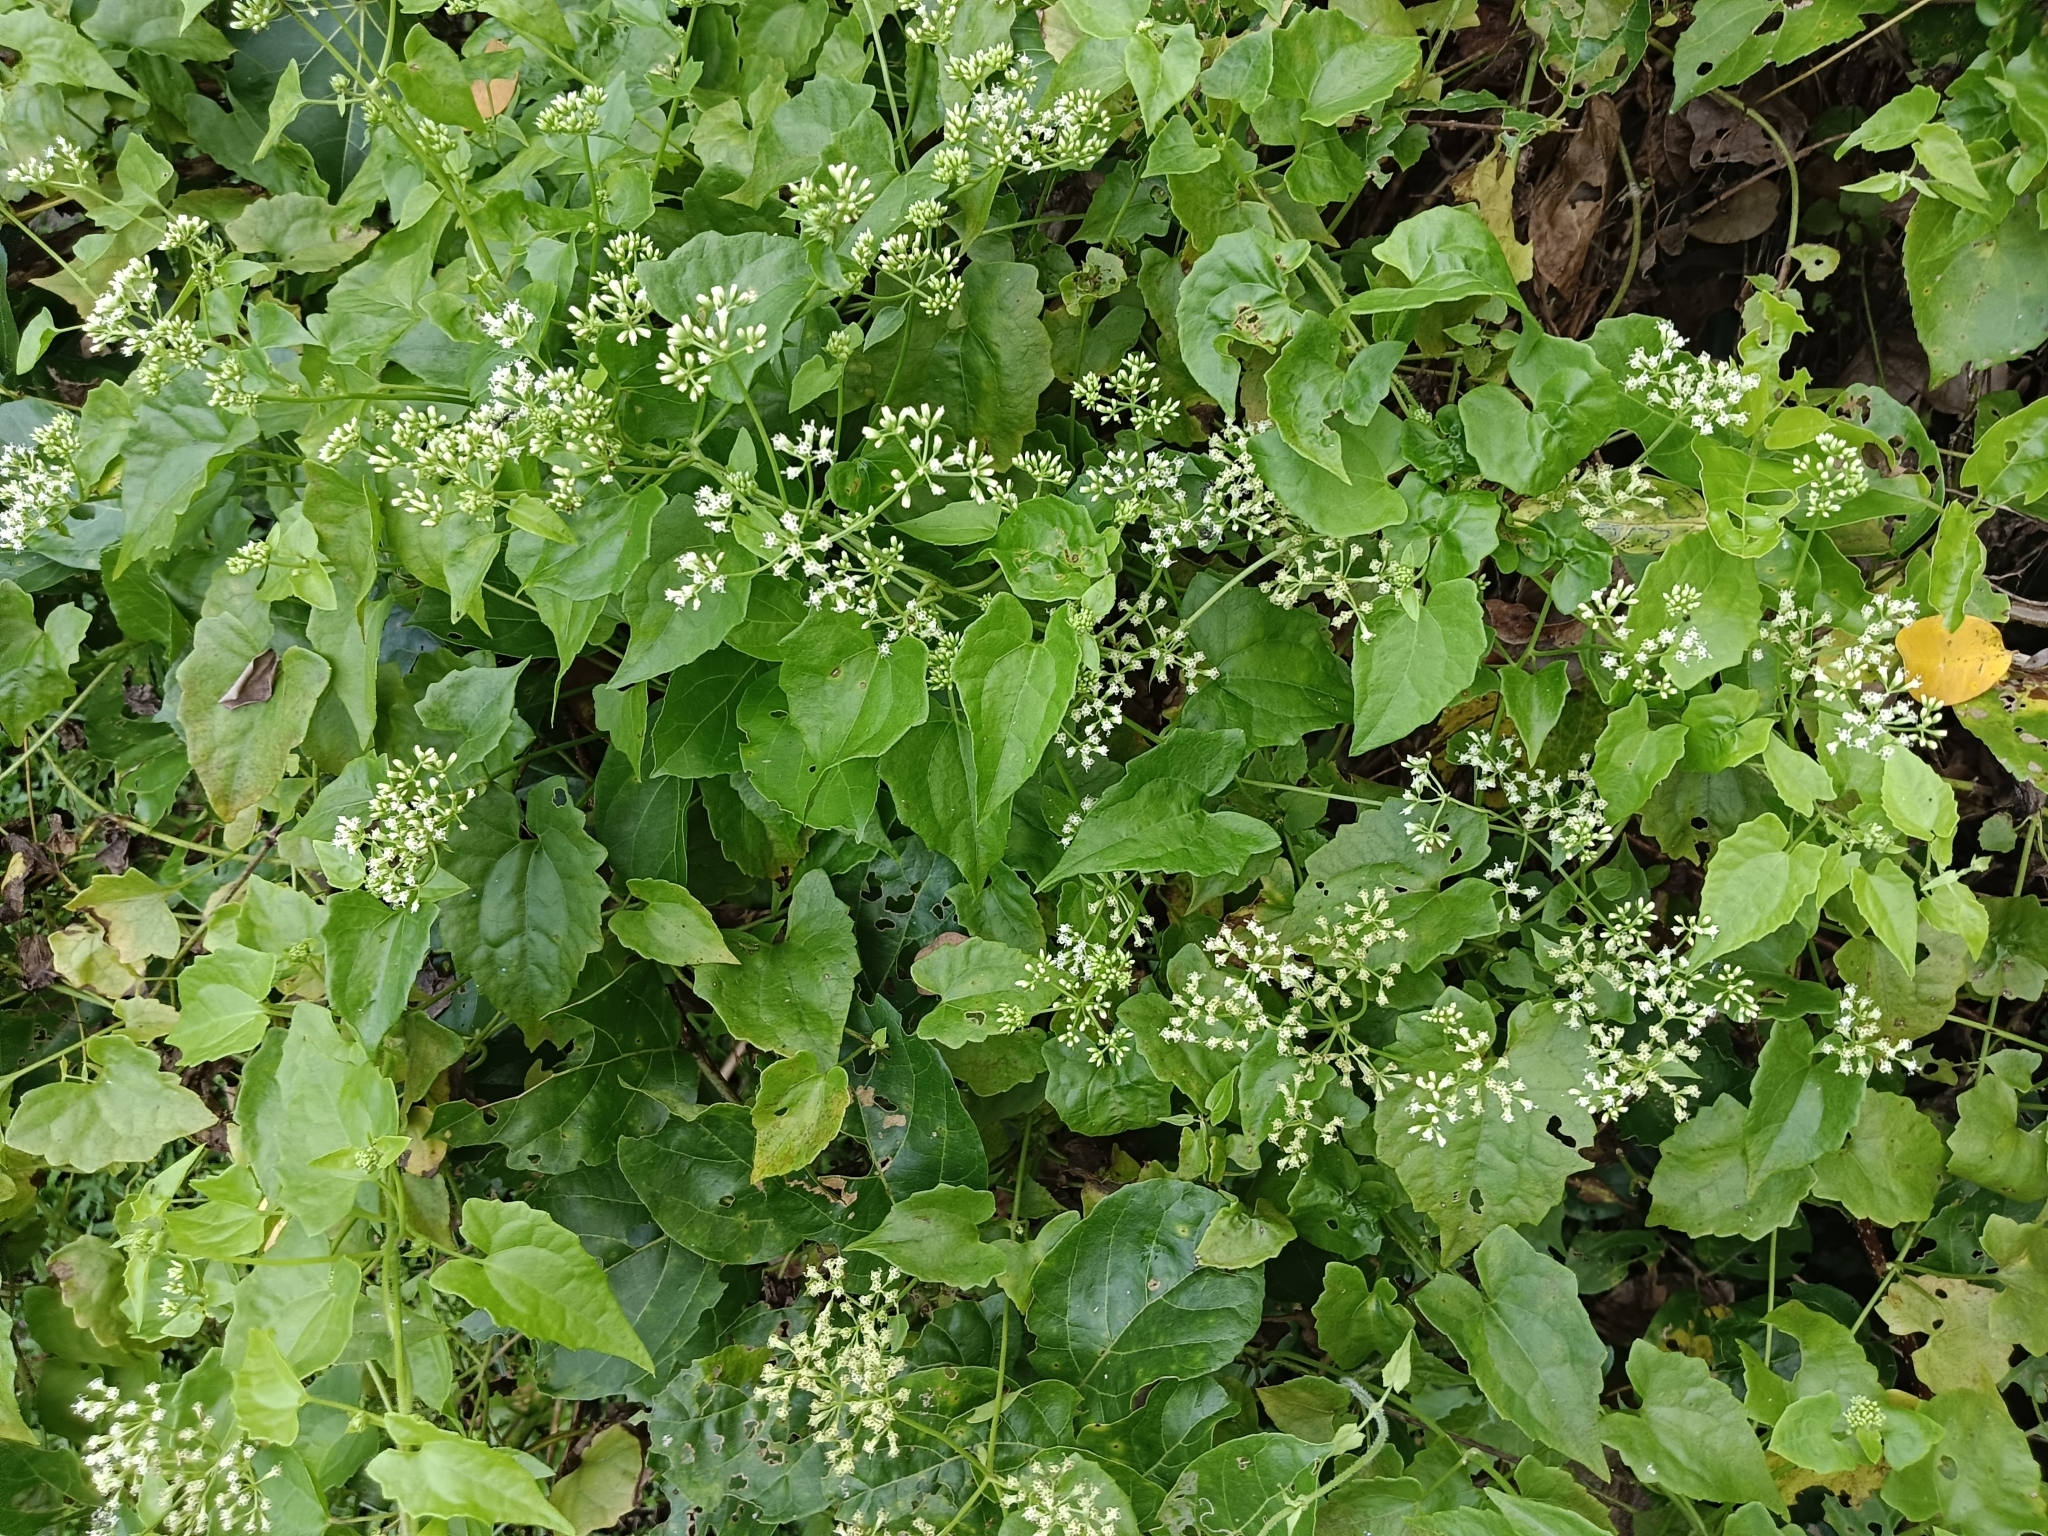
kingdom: Plantae
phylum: Tracheophyta
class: Magnoliopsida
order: Asterales
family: Asteraceae
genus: Mikania
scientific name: Mikania micrantha
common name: Mile-a-minute
